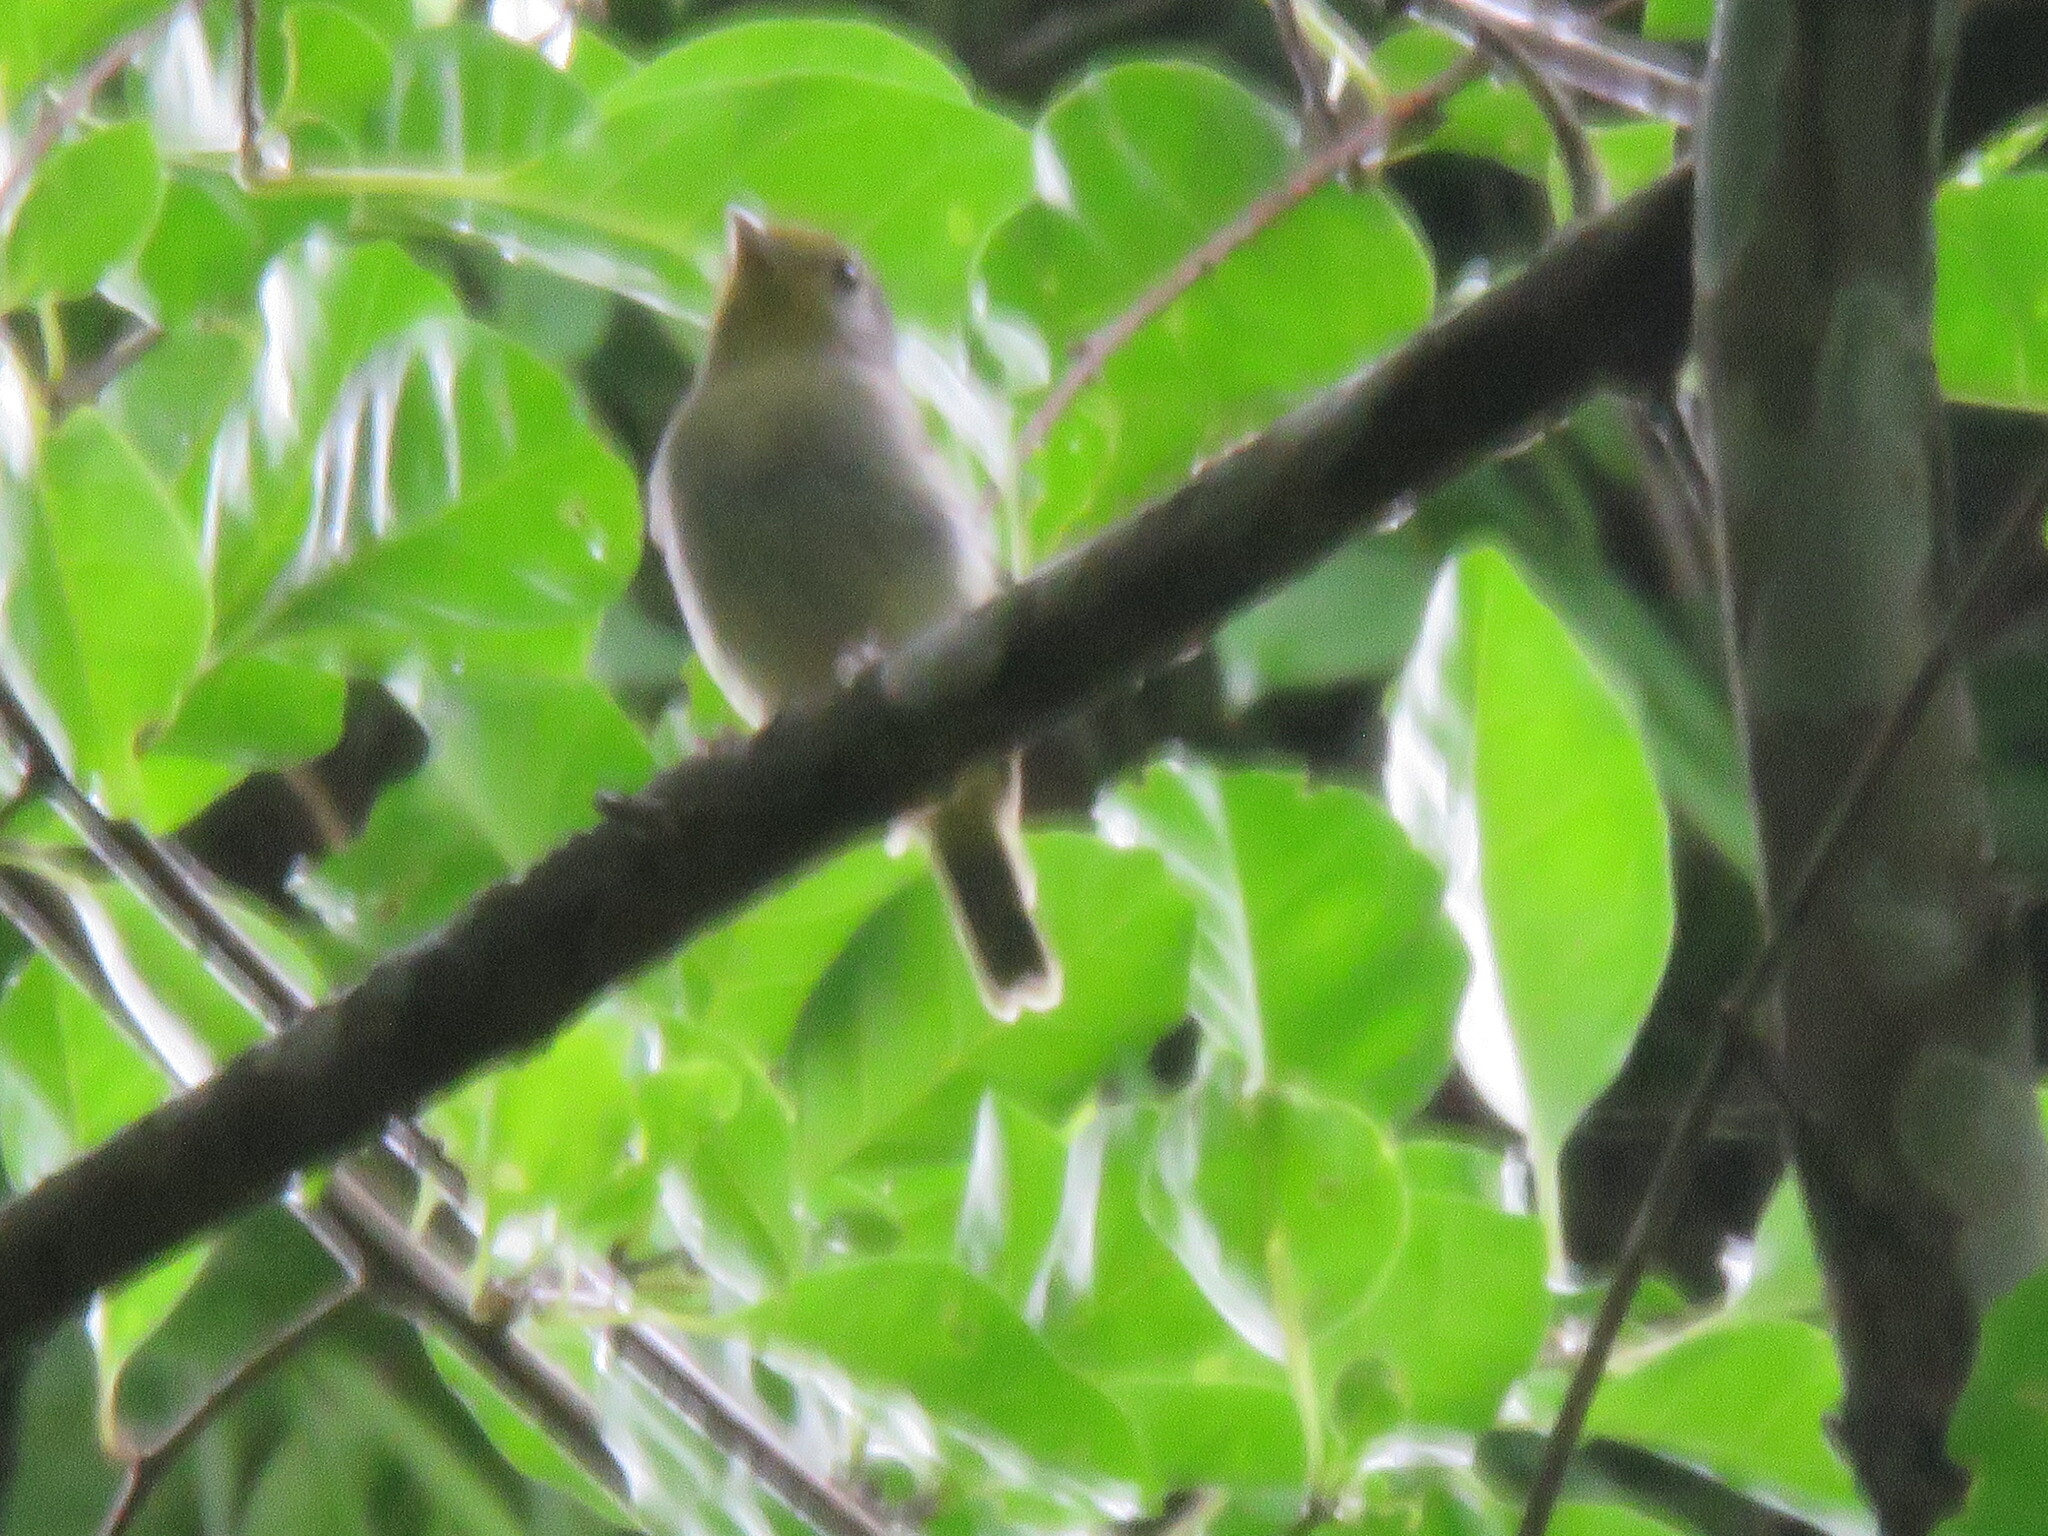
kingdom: Animalia
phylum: Chordata
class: Aves
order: Passeriformes
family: Cotingidae
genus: Piprites
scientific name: Piprites chloris
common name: Wing-barred piprites
